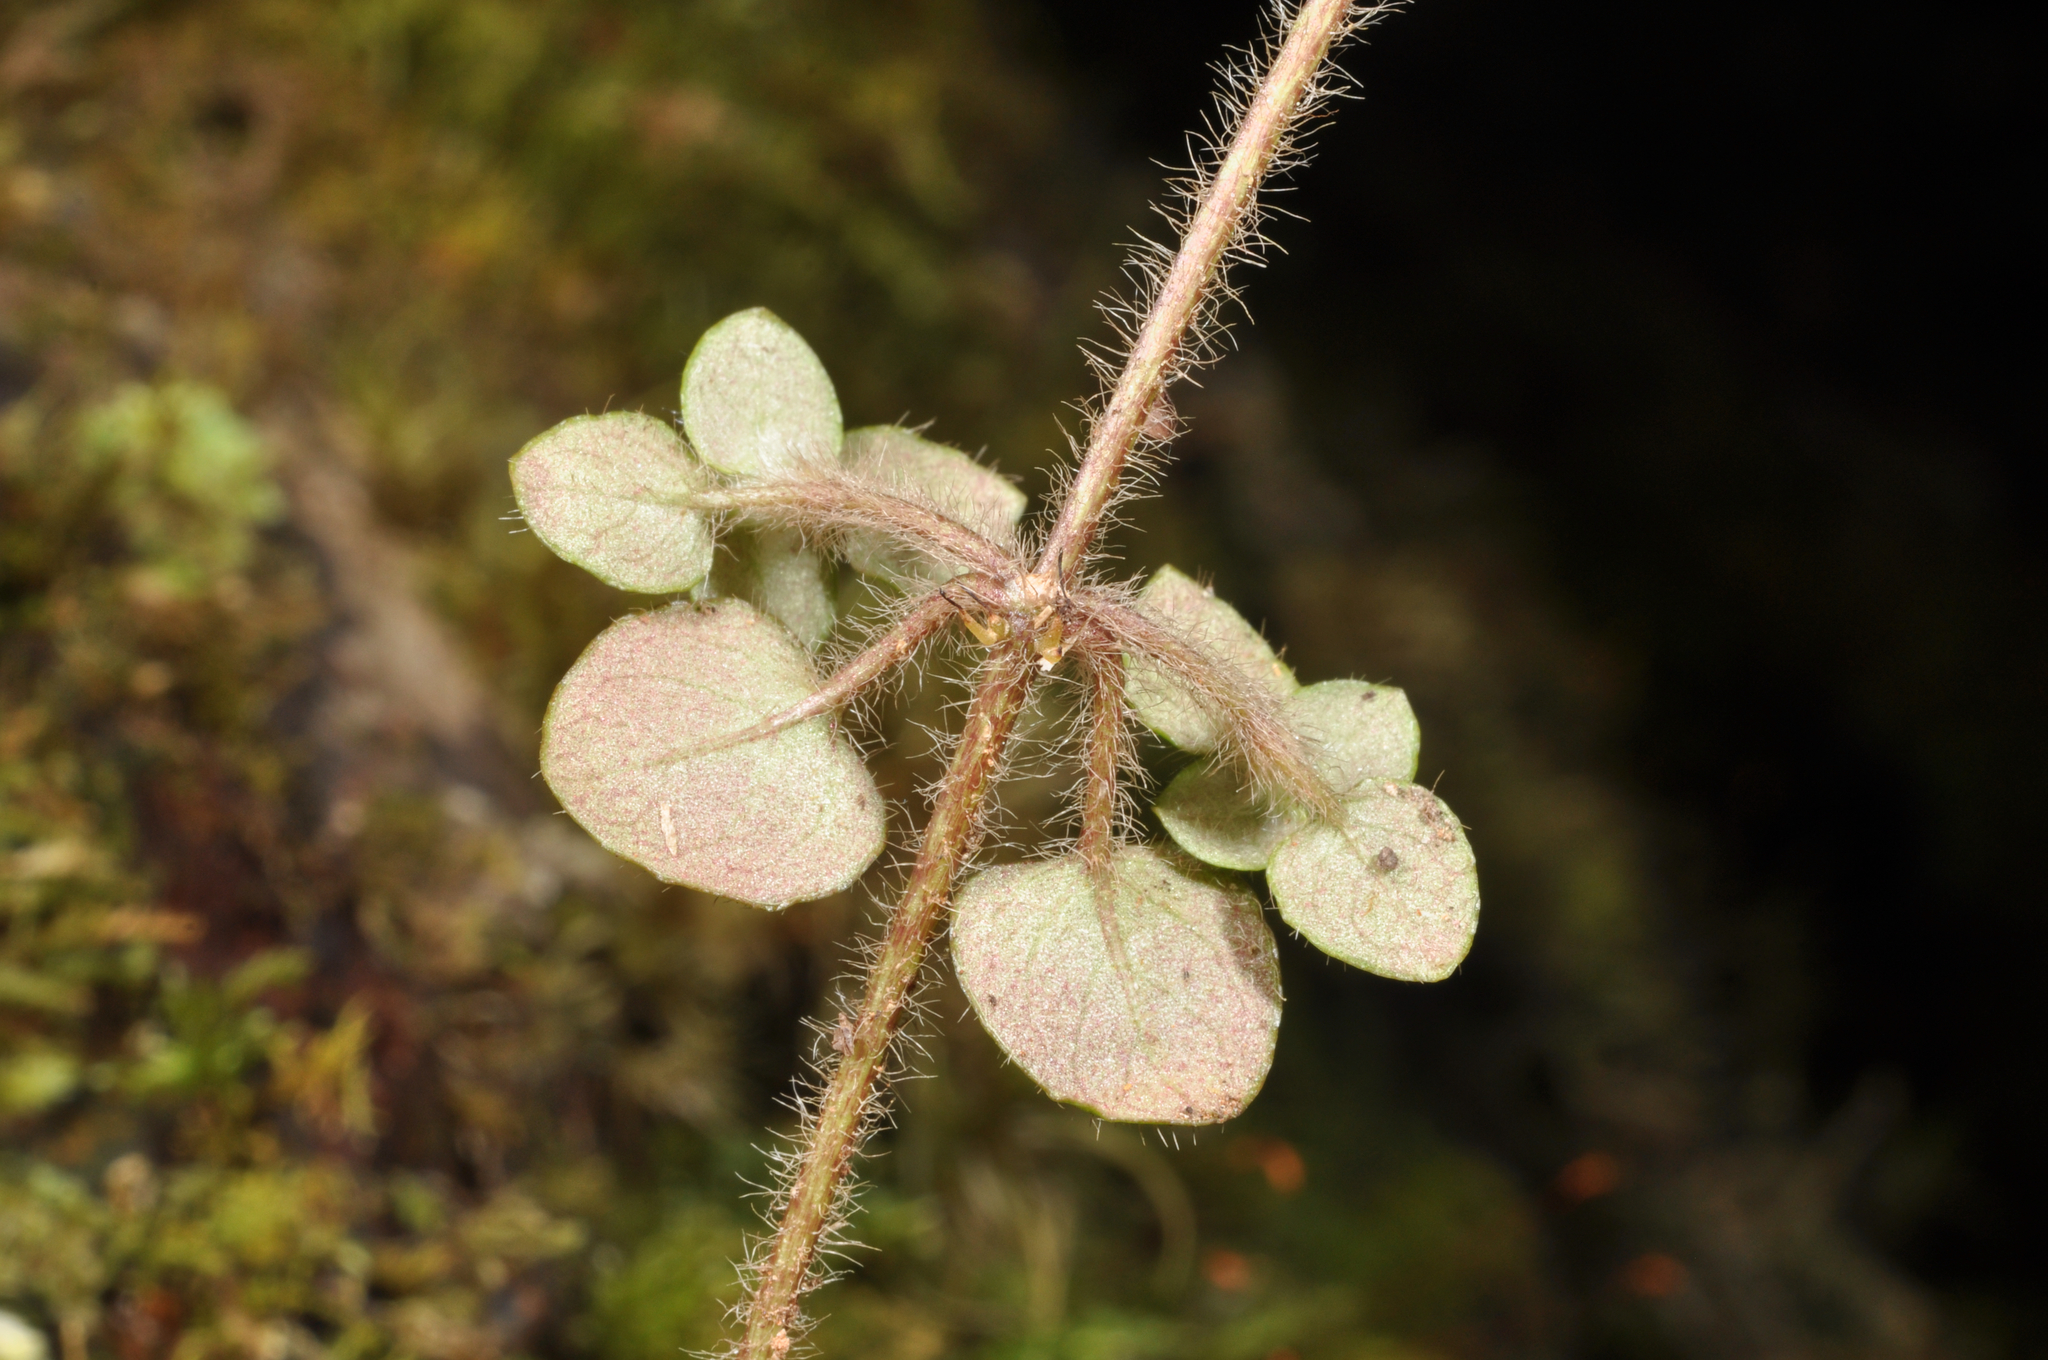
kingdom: Plantae
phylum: Tracheophyta
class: Magnoliopsida
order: Gentianales
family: Rubiaceae
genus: Nertera
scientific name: Nertera villosa
